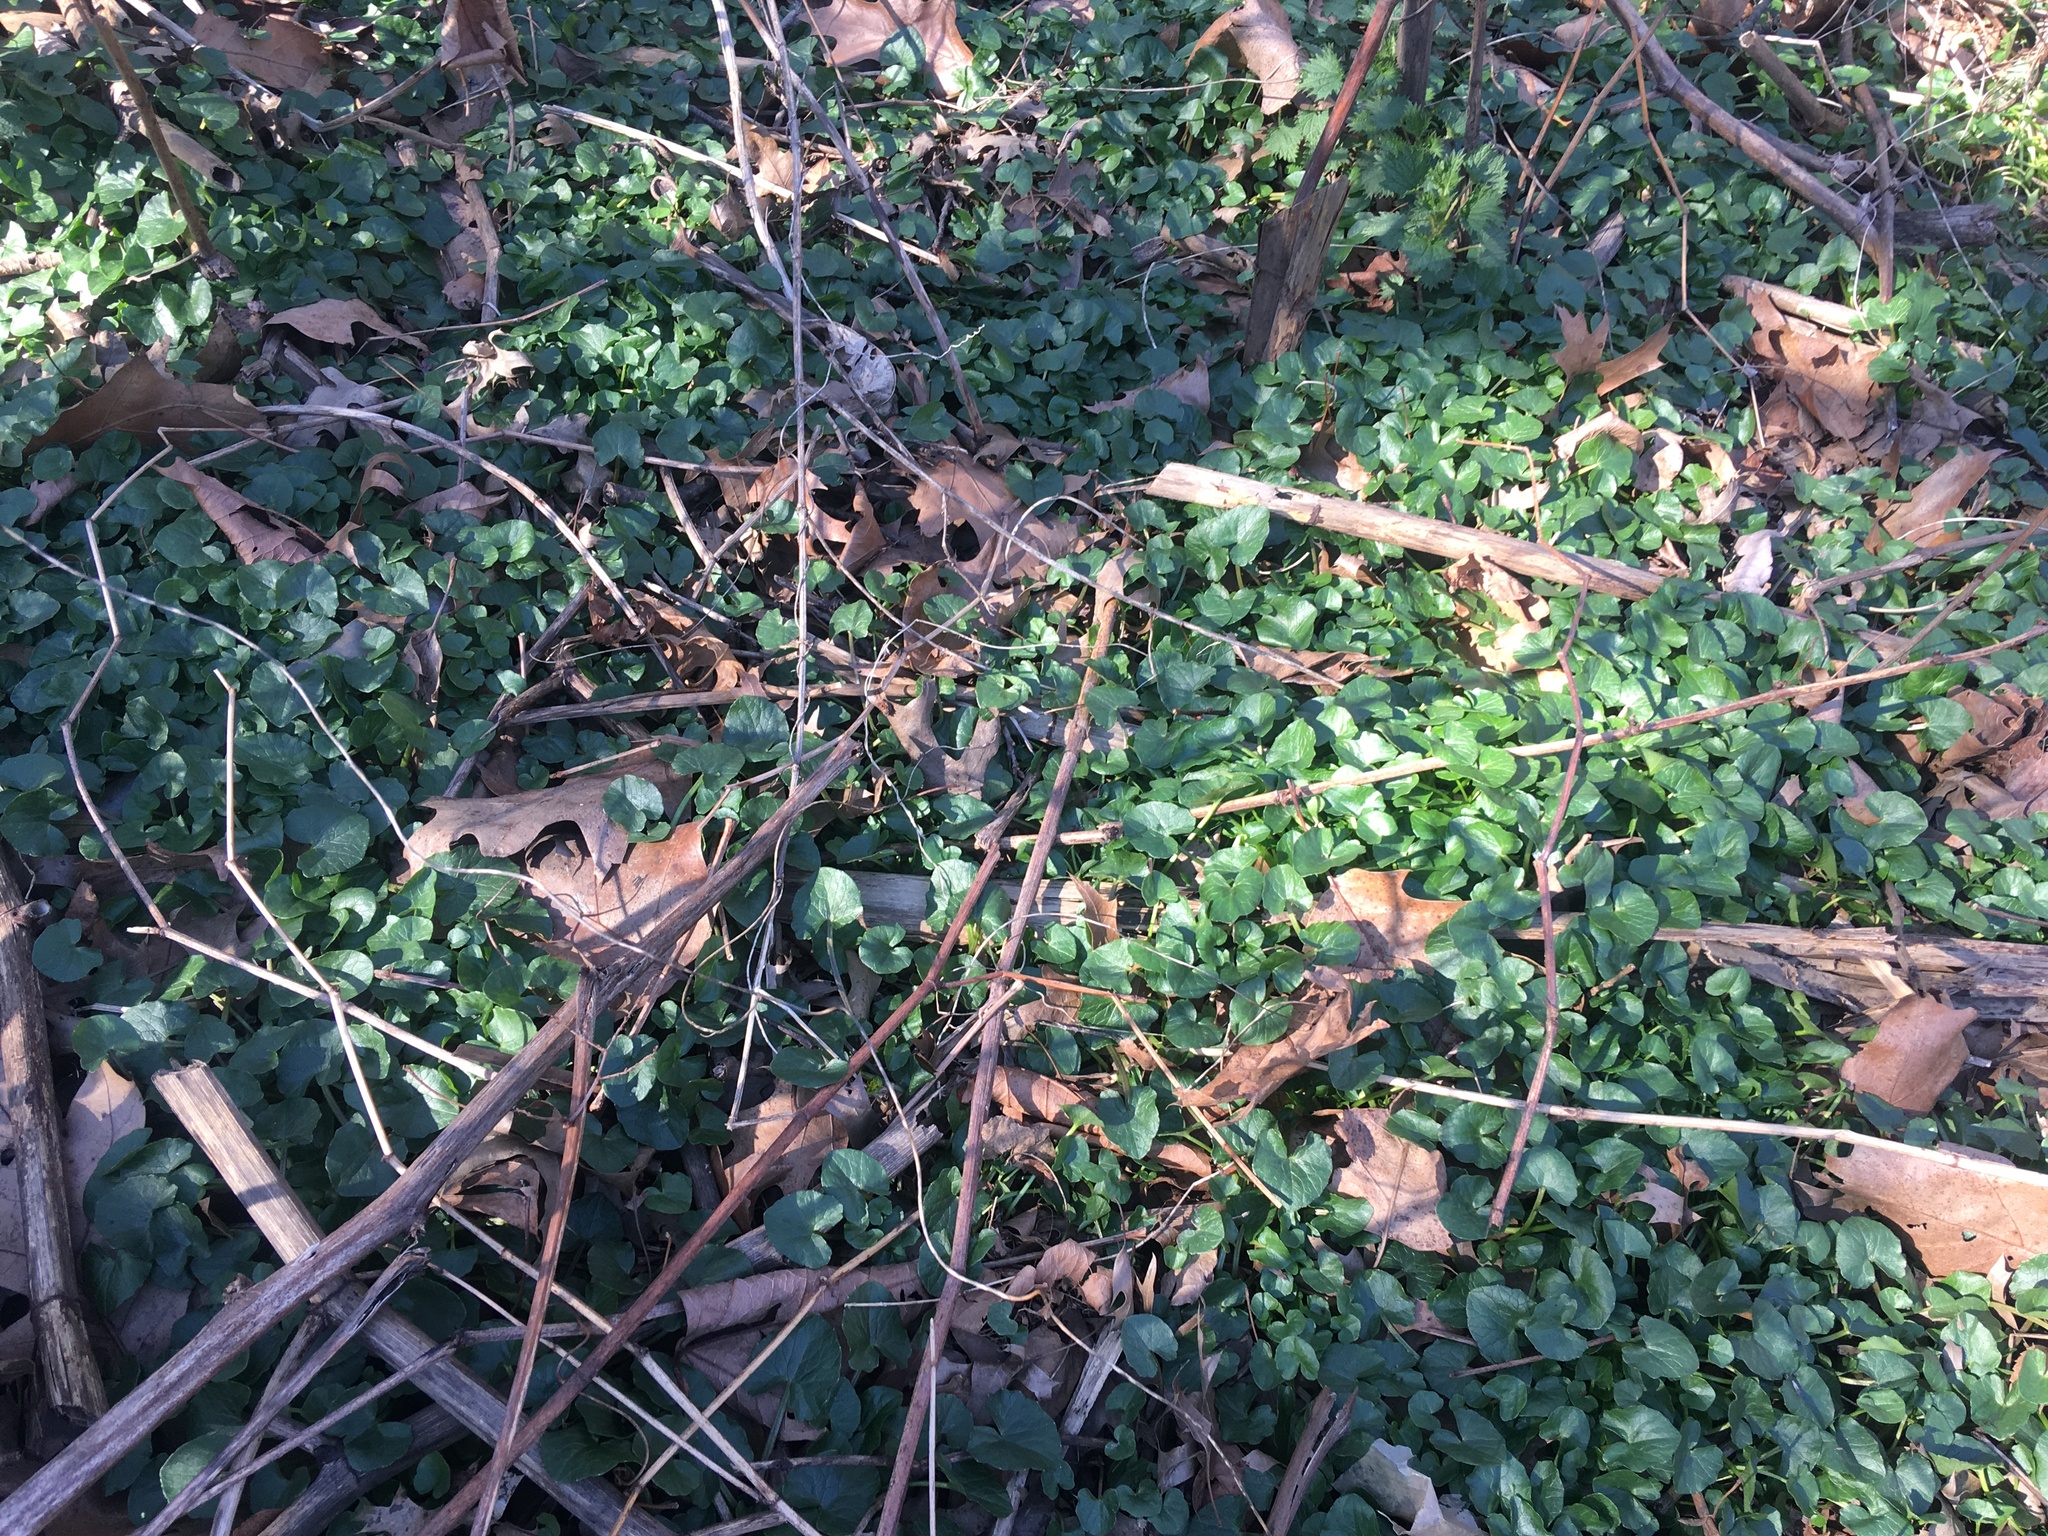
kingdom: Plantae
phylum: Tracheophyta
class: Magnoliopsida
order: Ranunculales
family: Ranunculaceae
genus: Ficaria
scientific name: Ficaria verna
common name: Lesser celandine
